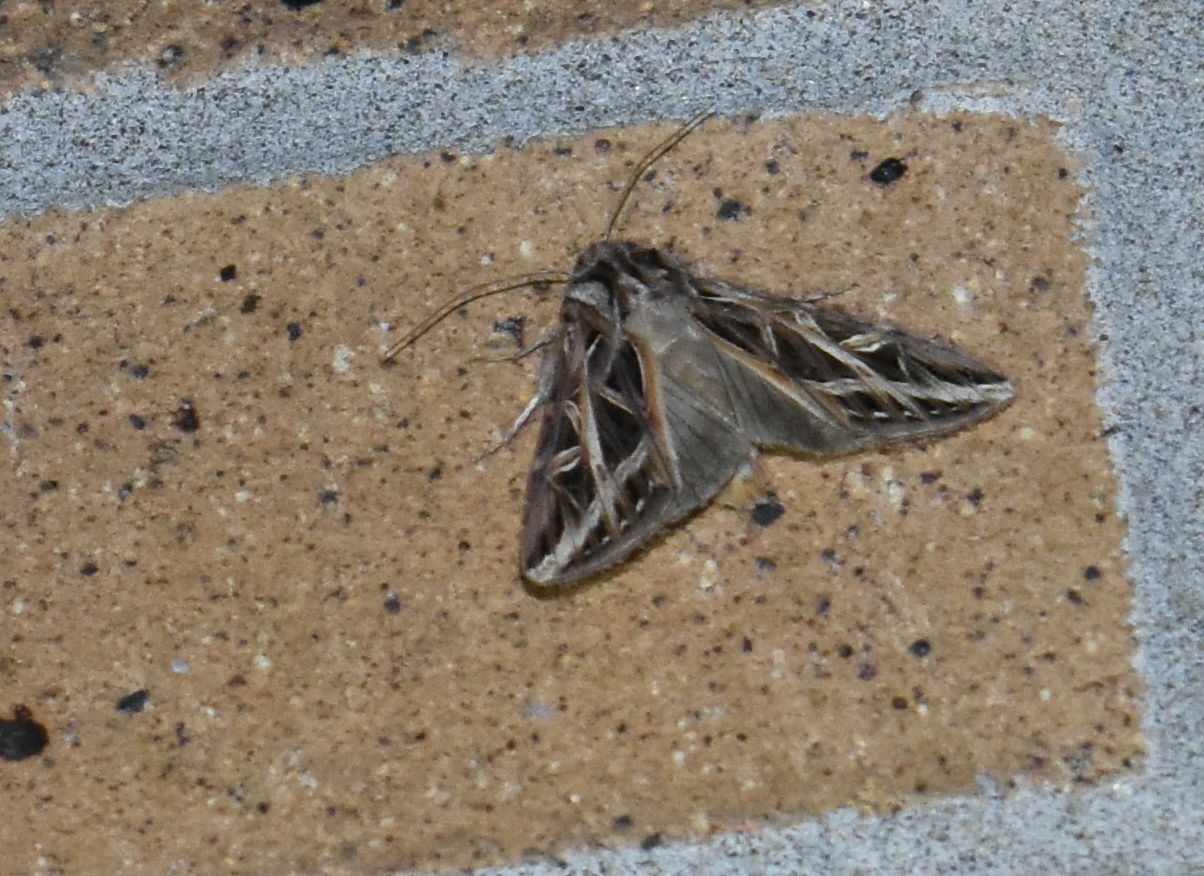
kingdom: Animalia
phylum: Arthropoda
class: Insecta
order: Lepidoptera
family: Noctuidae
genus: Dargida
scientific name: Dargida procinctus
